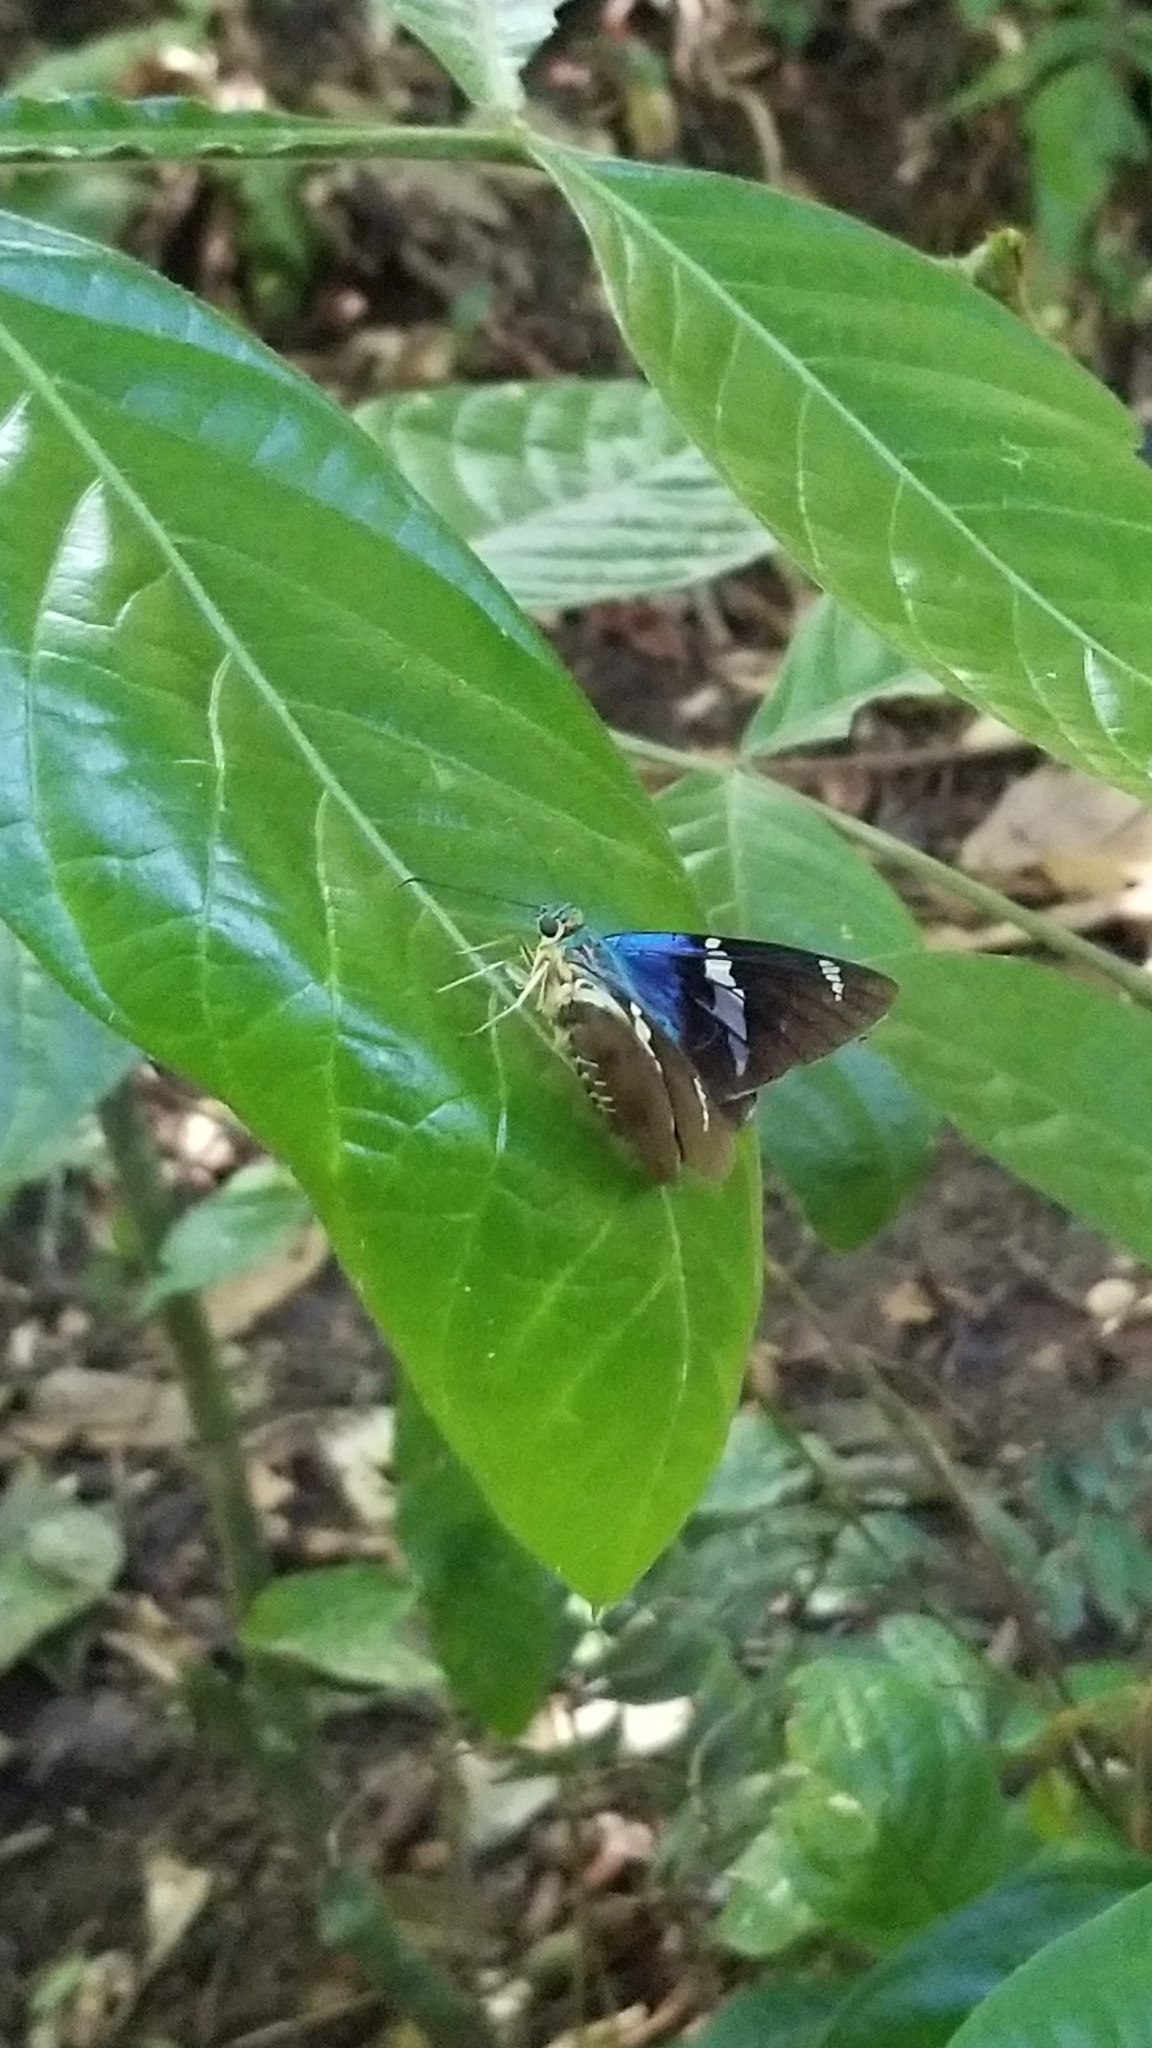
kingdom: Animalia
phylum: Arthropoda
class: Insecta
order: Lepidoptera
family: Hesperiidae
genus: Astraptes
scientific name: Astraptes fulgerator
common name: Two-barred flasher
